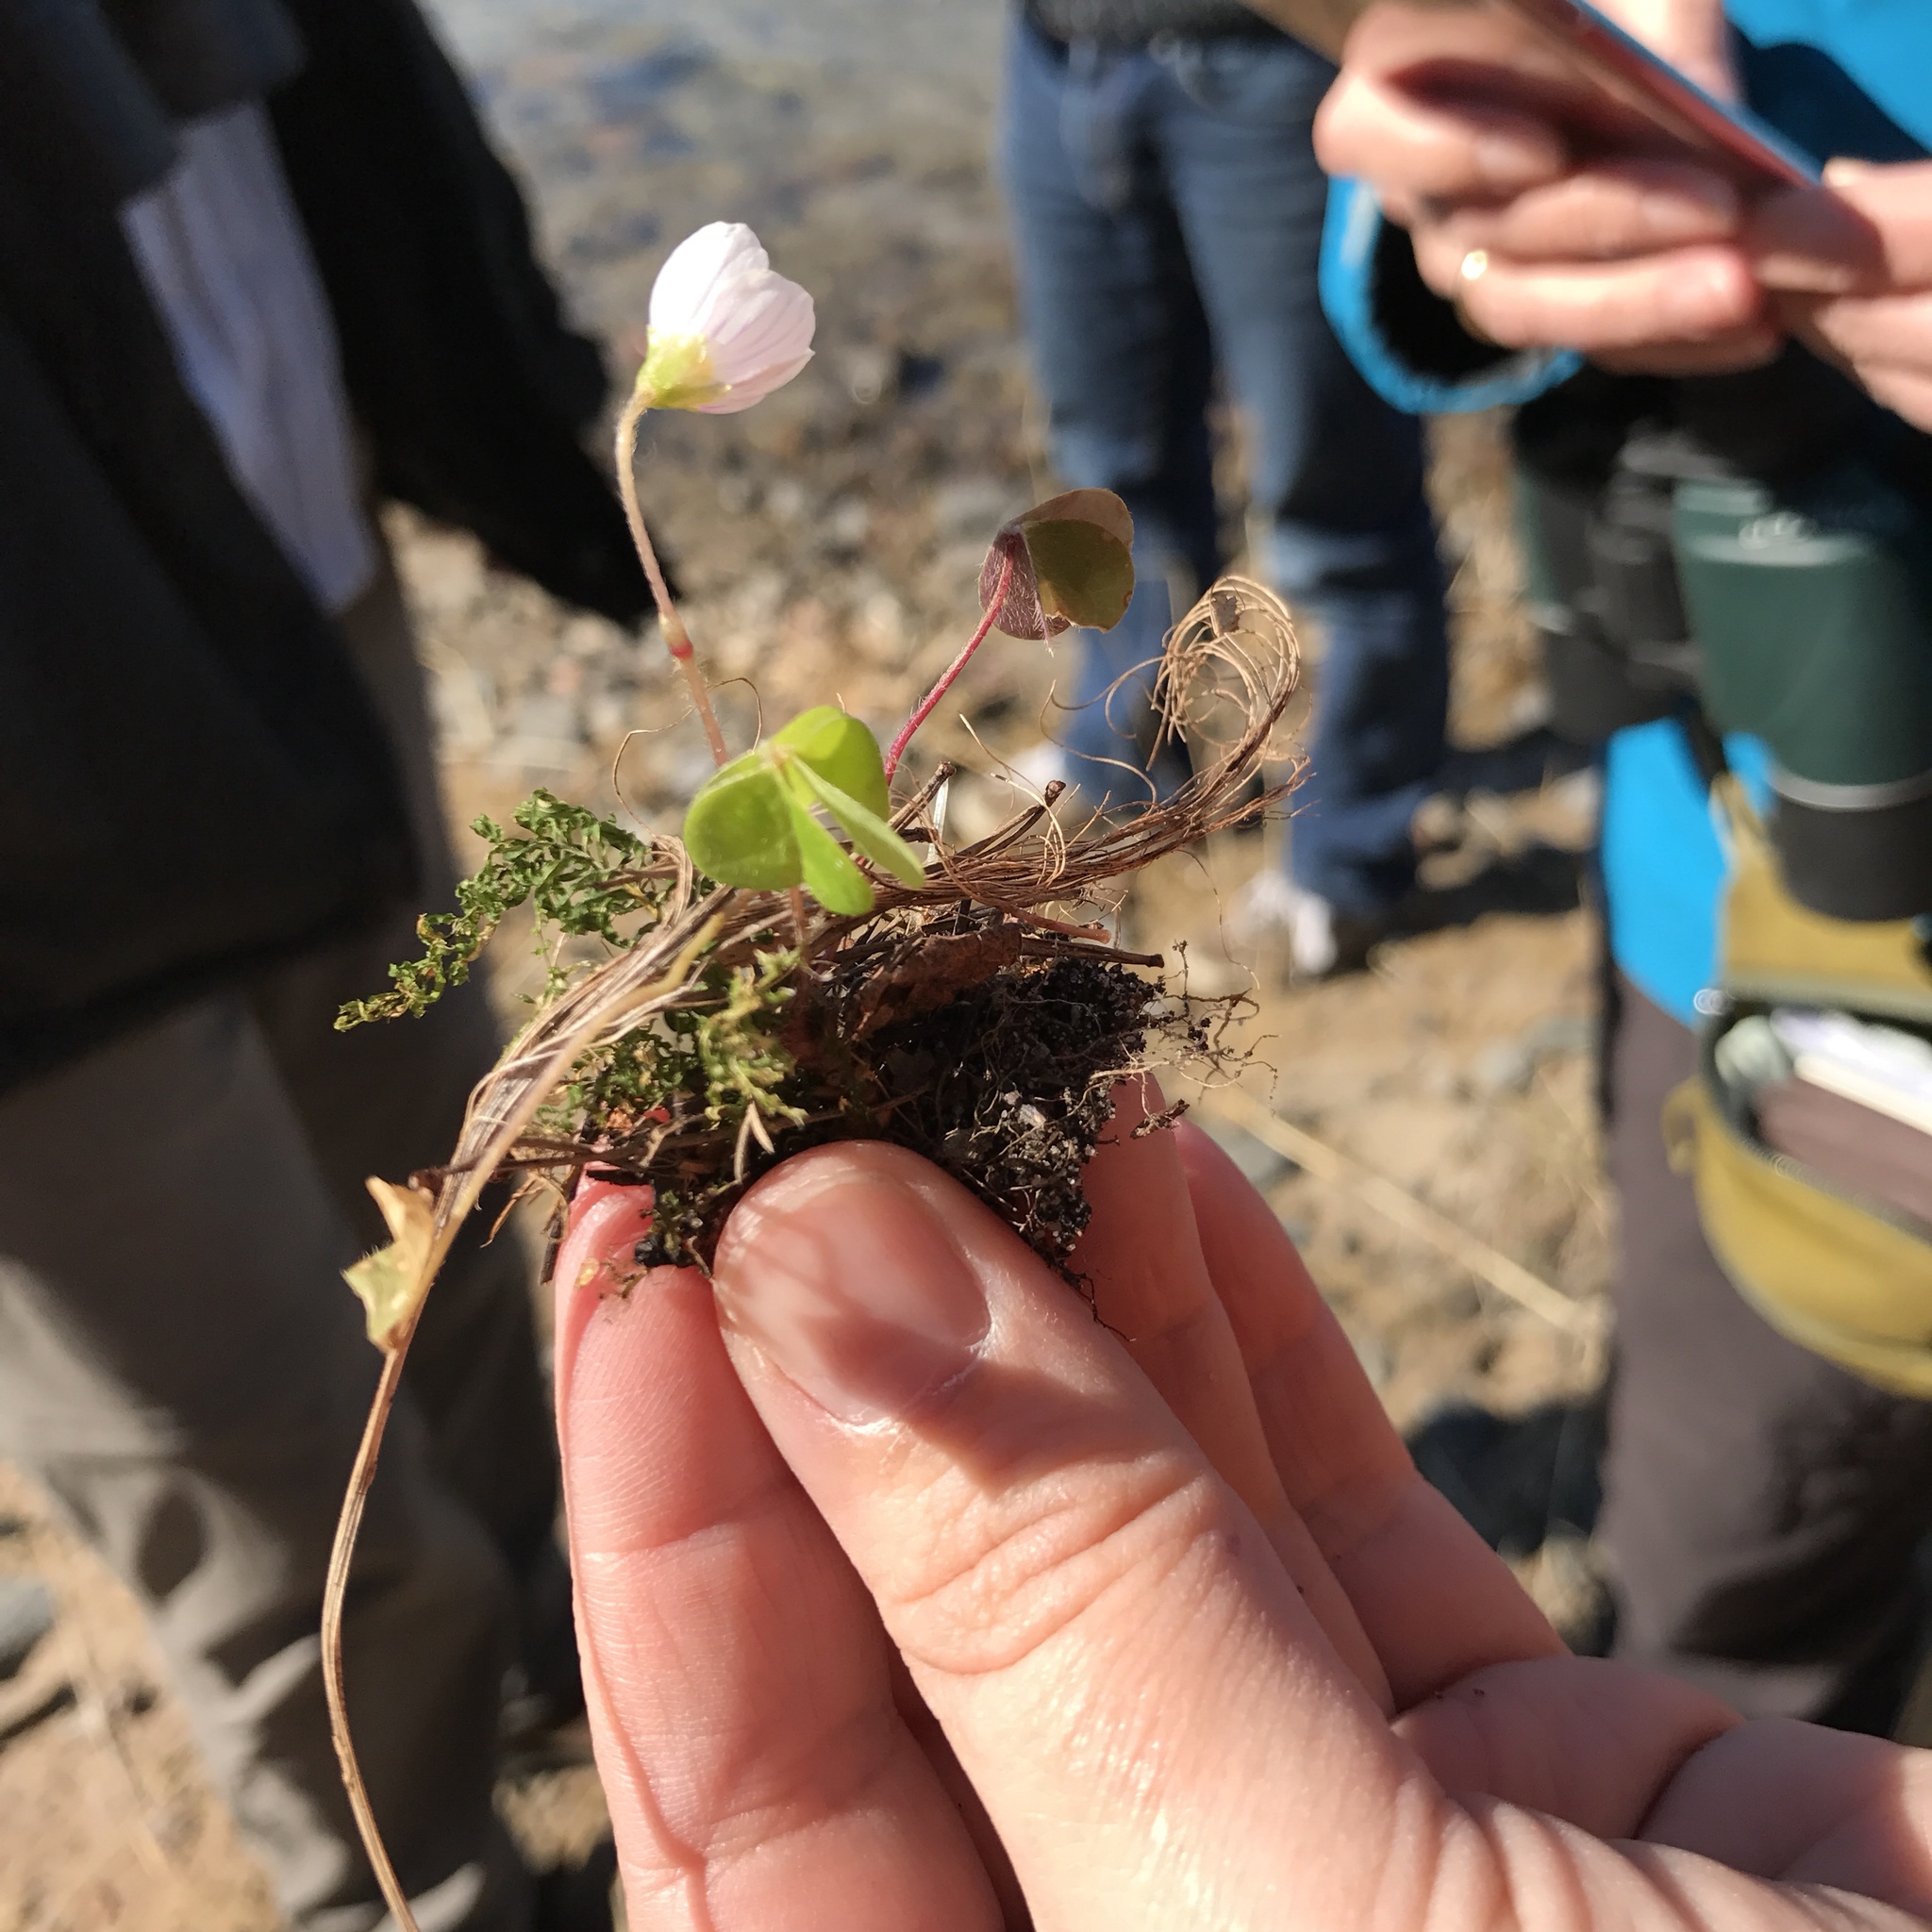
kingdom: Plantae
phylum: Tracheophyta
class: Magnoliopsida
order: Oxalidales
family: Oxalidaceae
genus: Oxalis
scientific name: Oxalis acetosella
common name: Wood-sorrel
